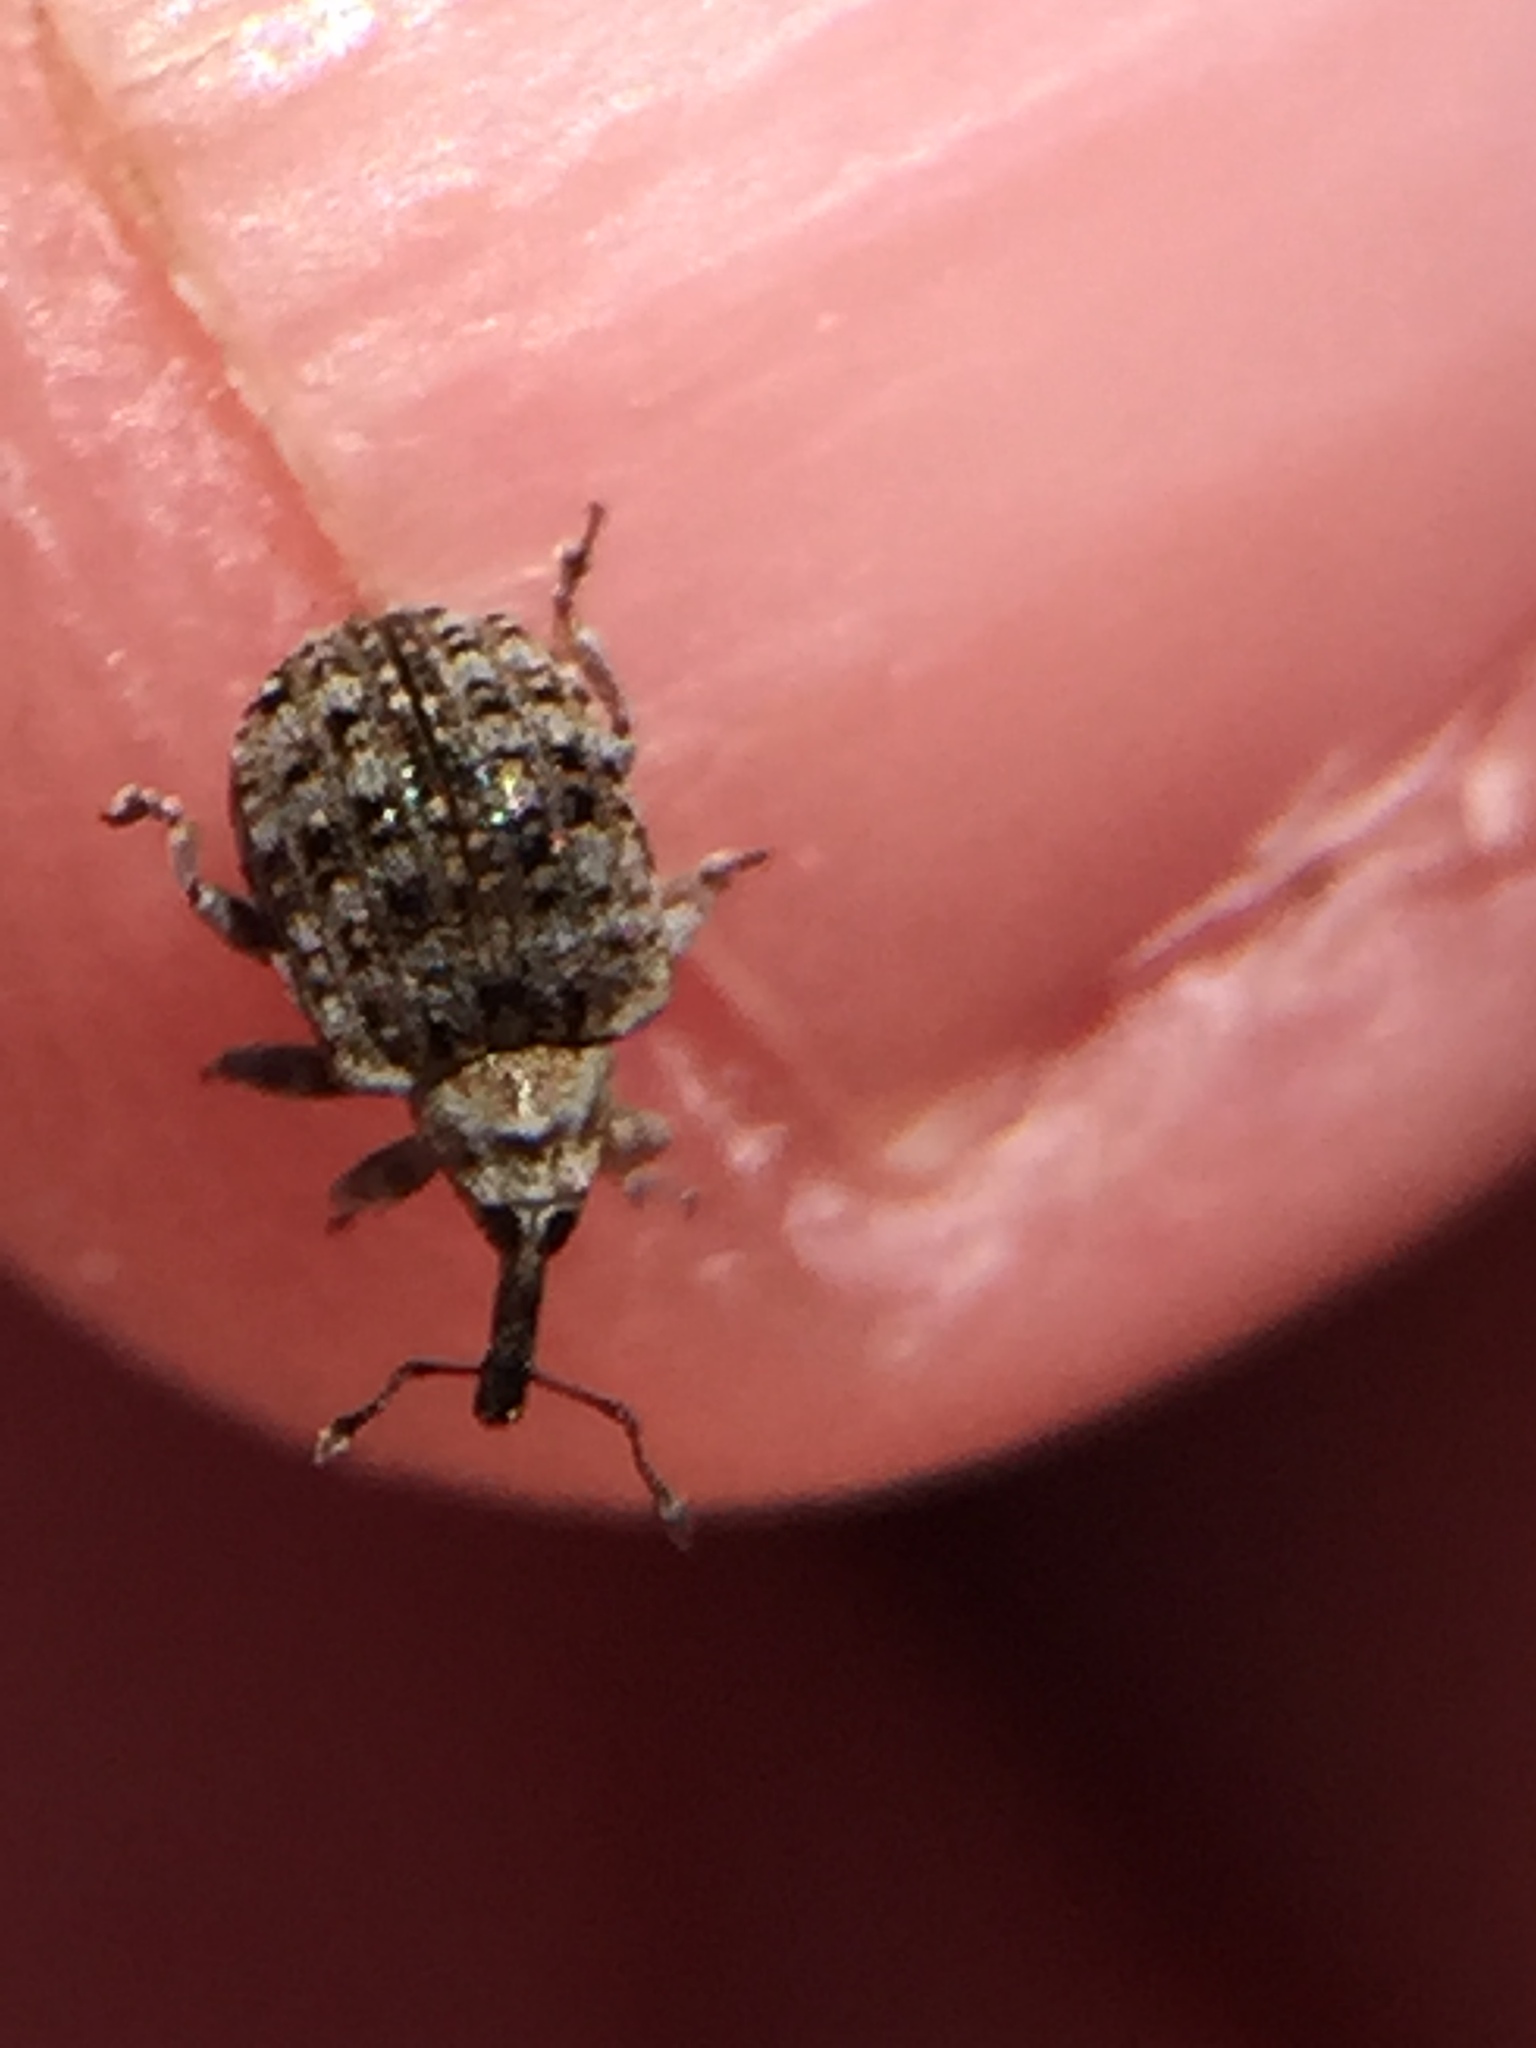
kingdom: Animalia
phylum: Arthropoda
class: Insecta
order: Coleoptera
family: Curculionidae
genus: Cleopus
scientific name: Cleopus japonicus
